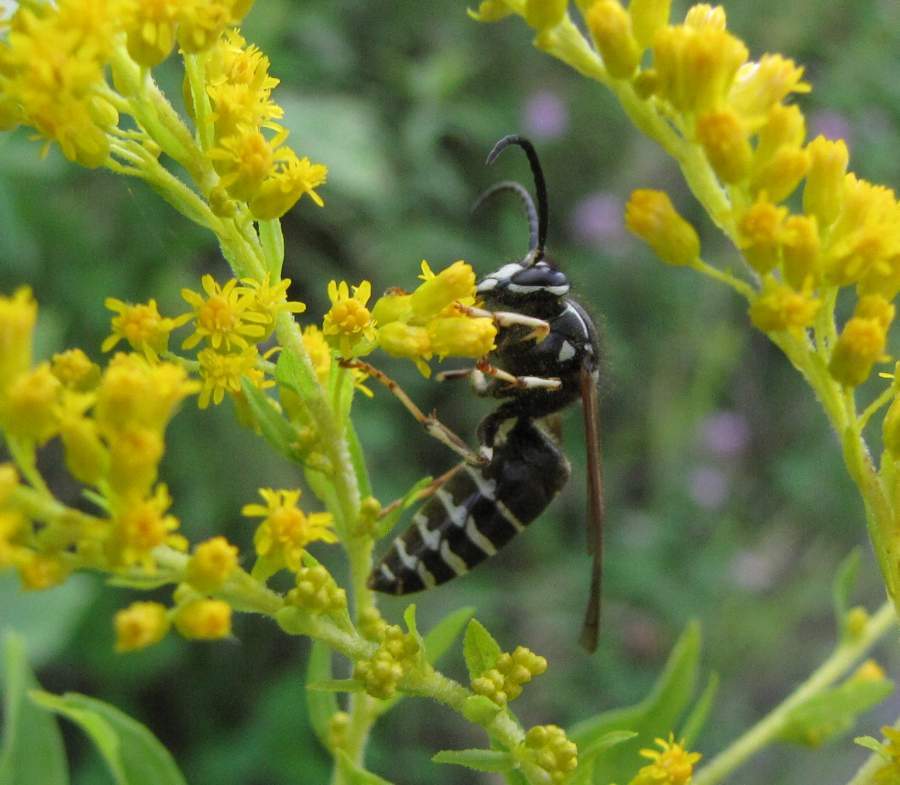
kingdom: Animalia
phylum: Arthropoda
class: Insecta
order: Hymenoptera
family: Vespidae
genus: Dolichovespula
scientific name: Dolichovespula adulterina
